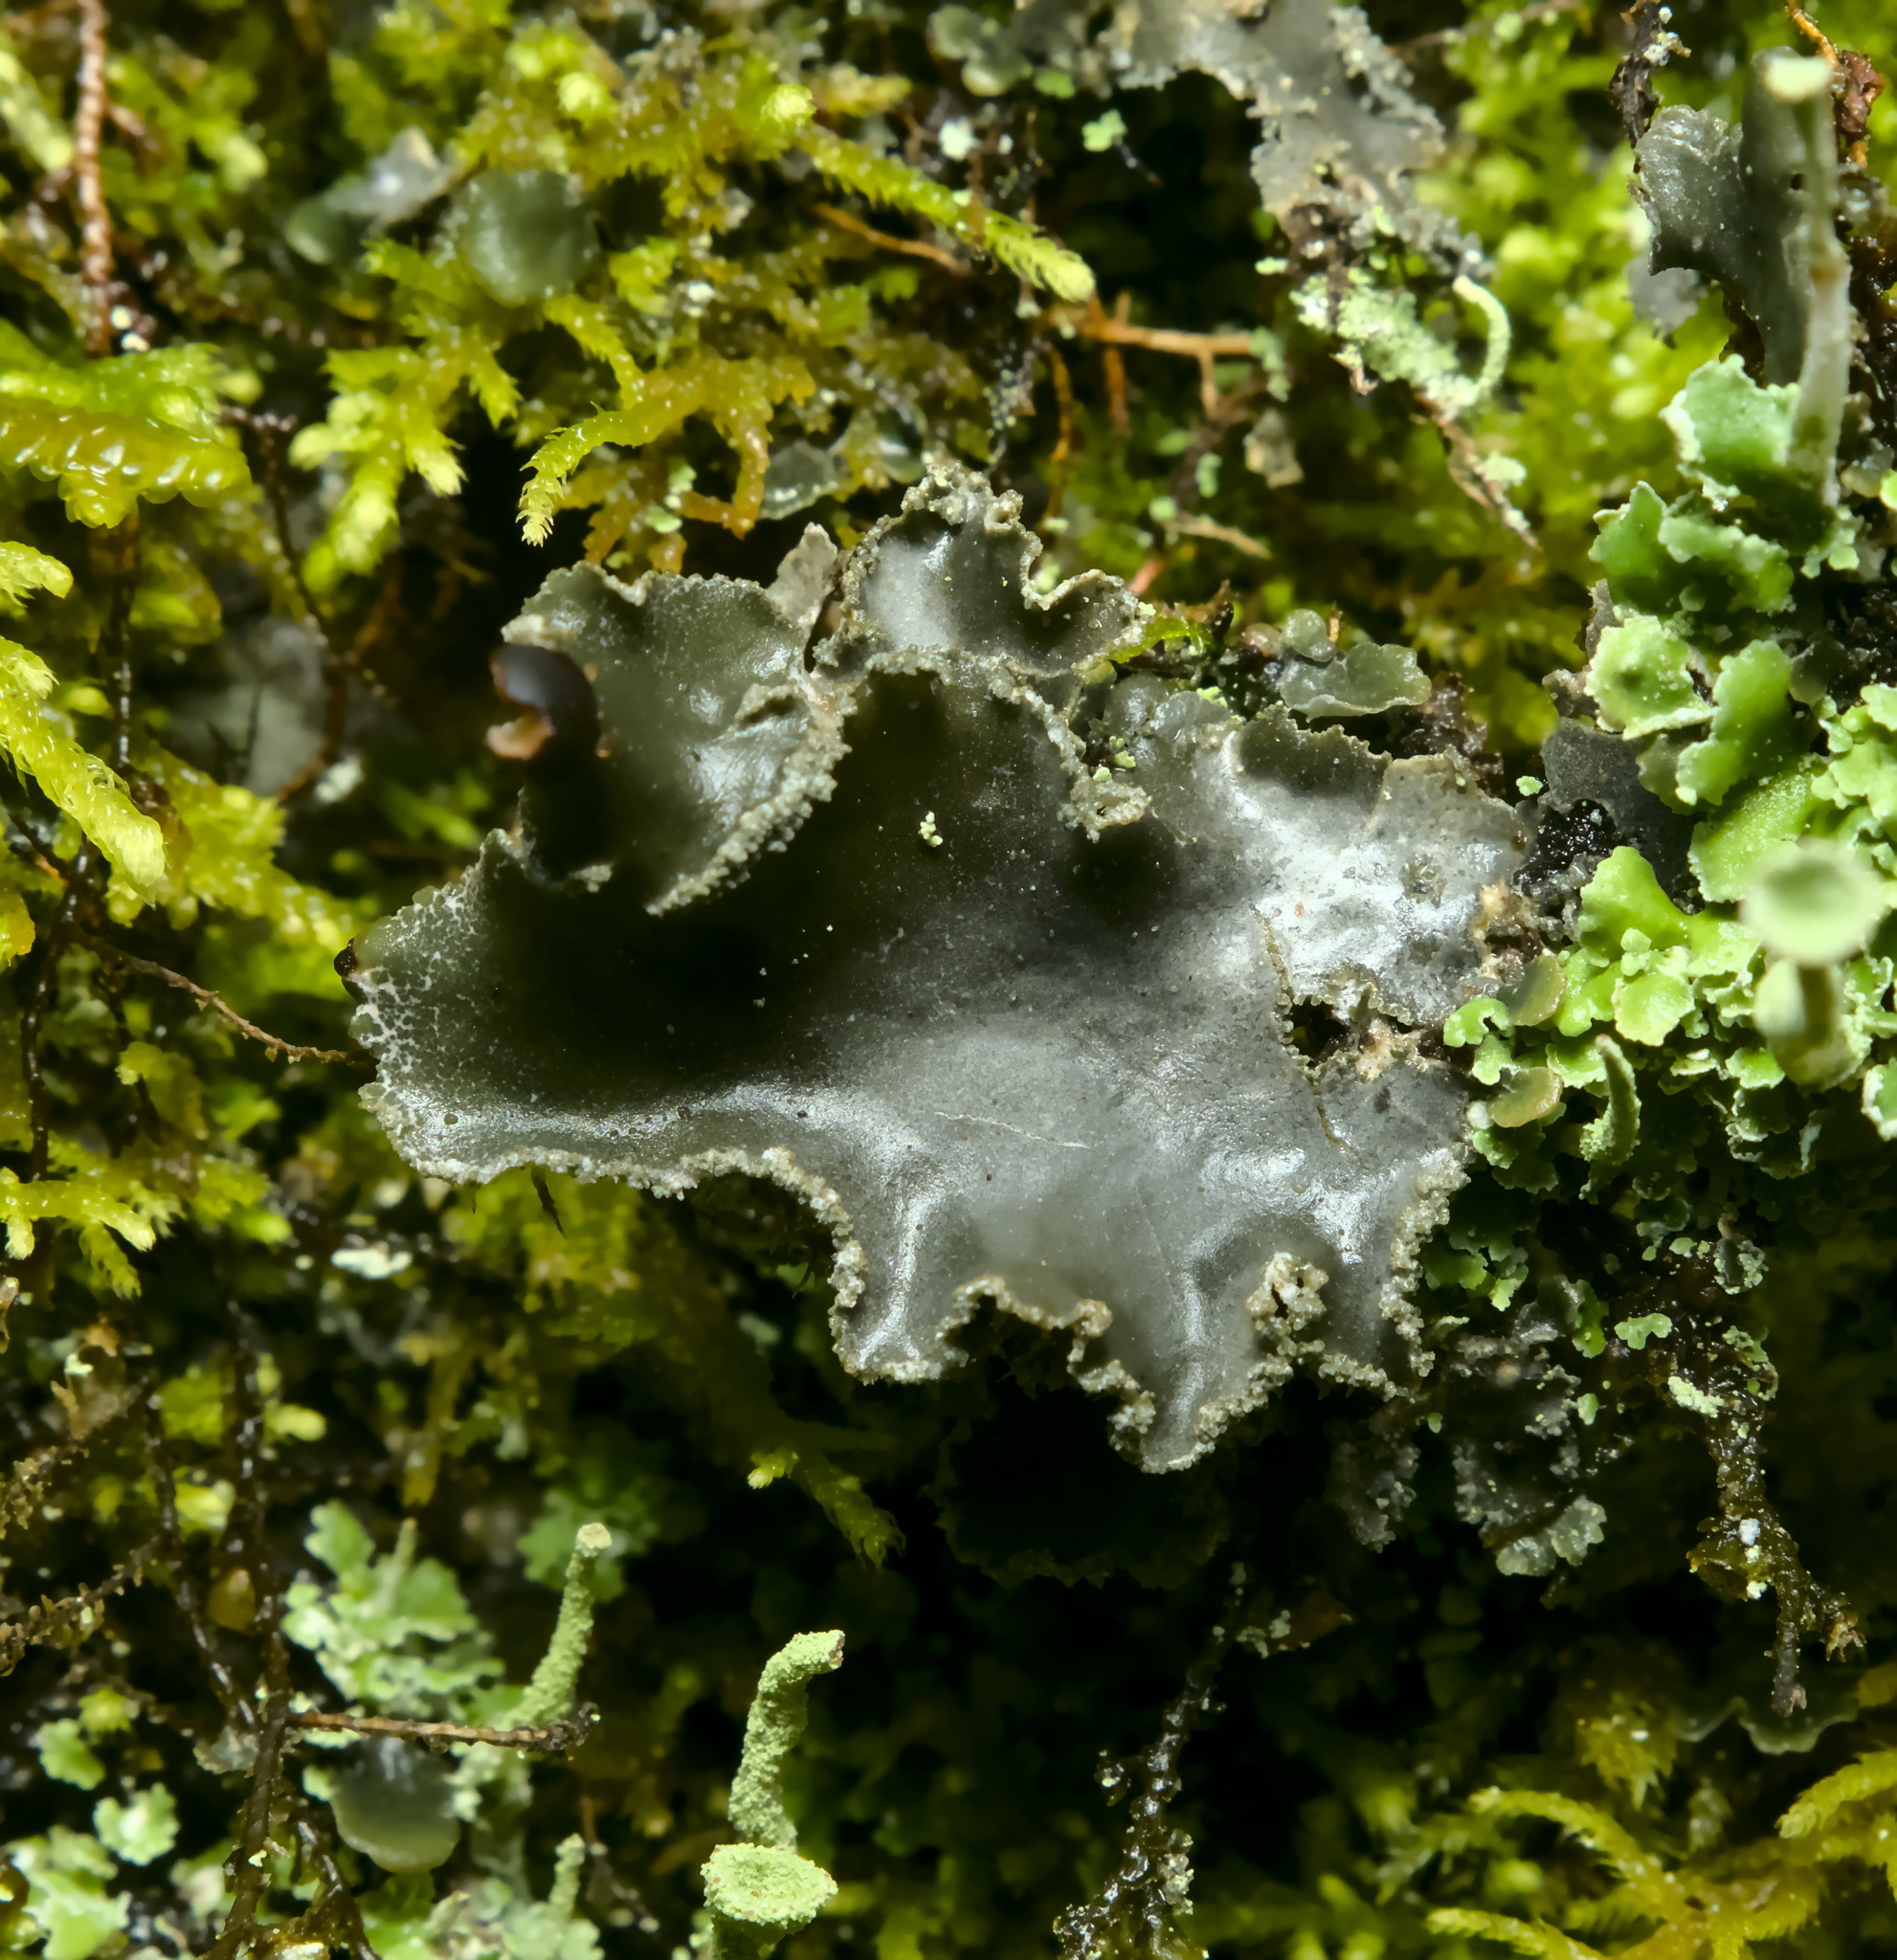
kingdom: Fungi
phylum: Ascomycota
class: Lecanoromycetes
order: Peltigerales
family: Peltigeraceae
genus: Peltigera
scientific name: Peltigera collina
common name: Gritty tree pelt lichen
